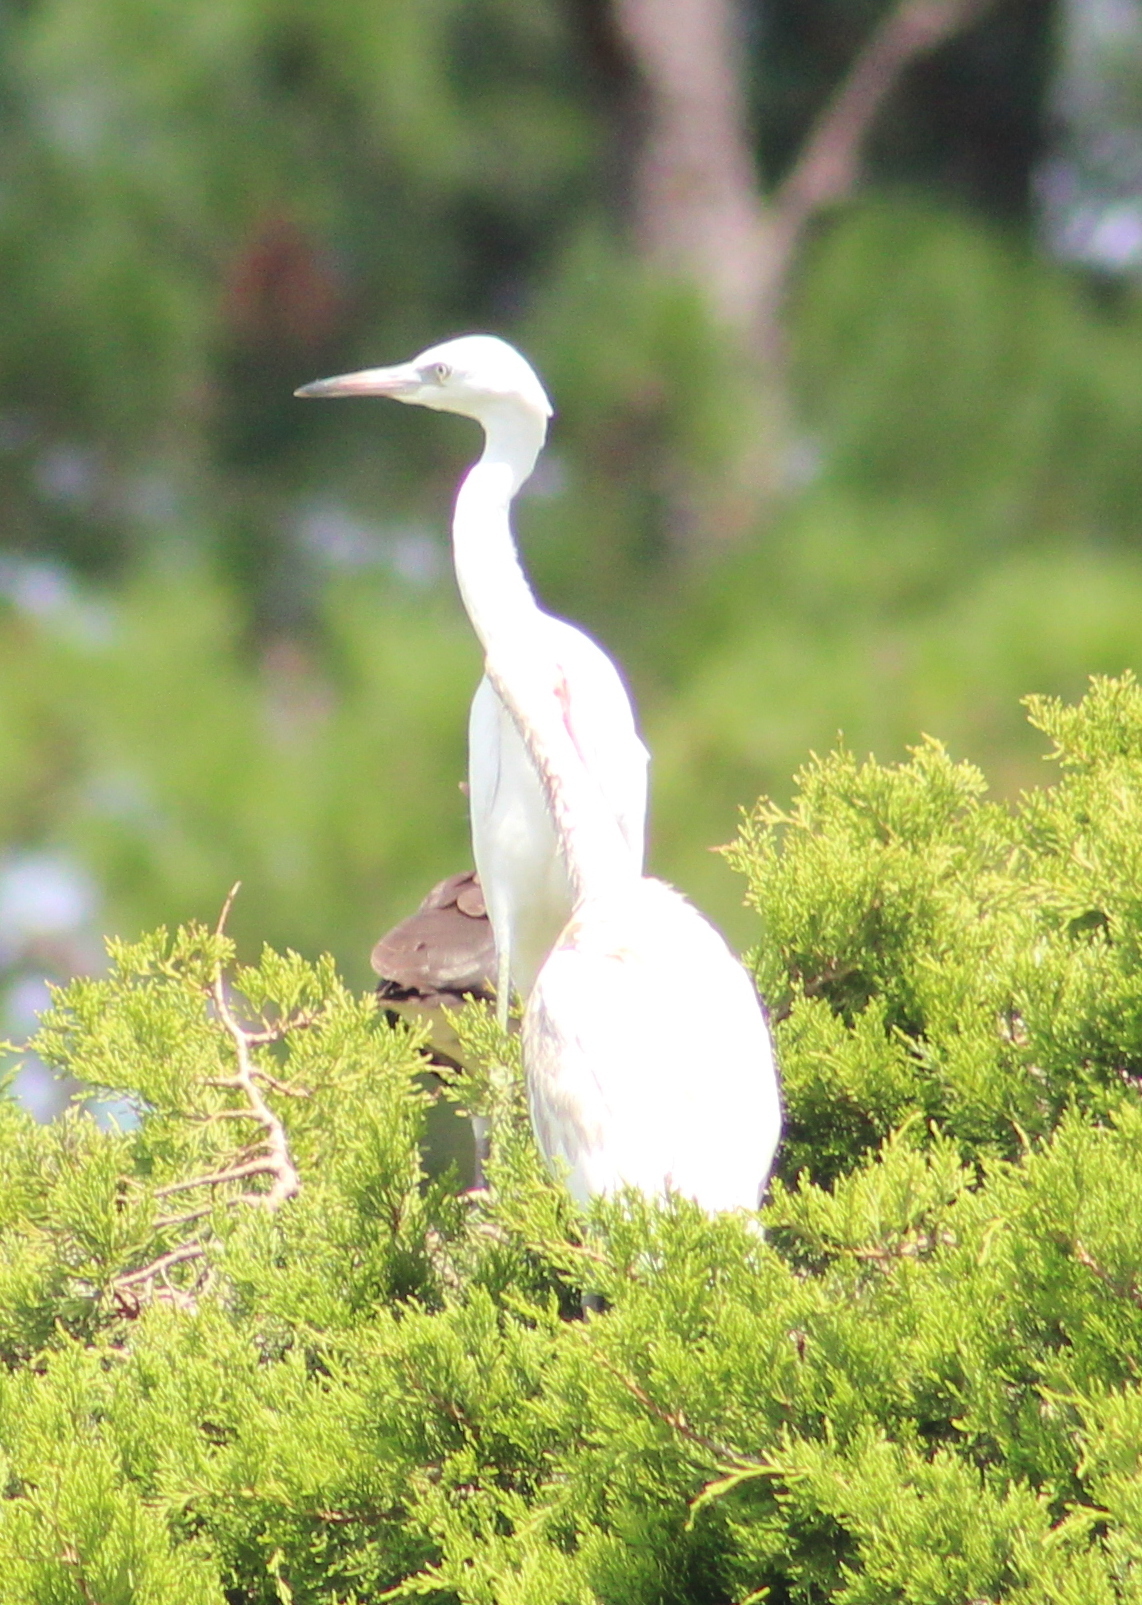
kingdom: Animalia
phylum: Chordata
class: Aves
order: Pelecaniformes
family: Ardeidae
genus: Egretta
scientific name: Egretta caerulea
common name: Little blue heron
